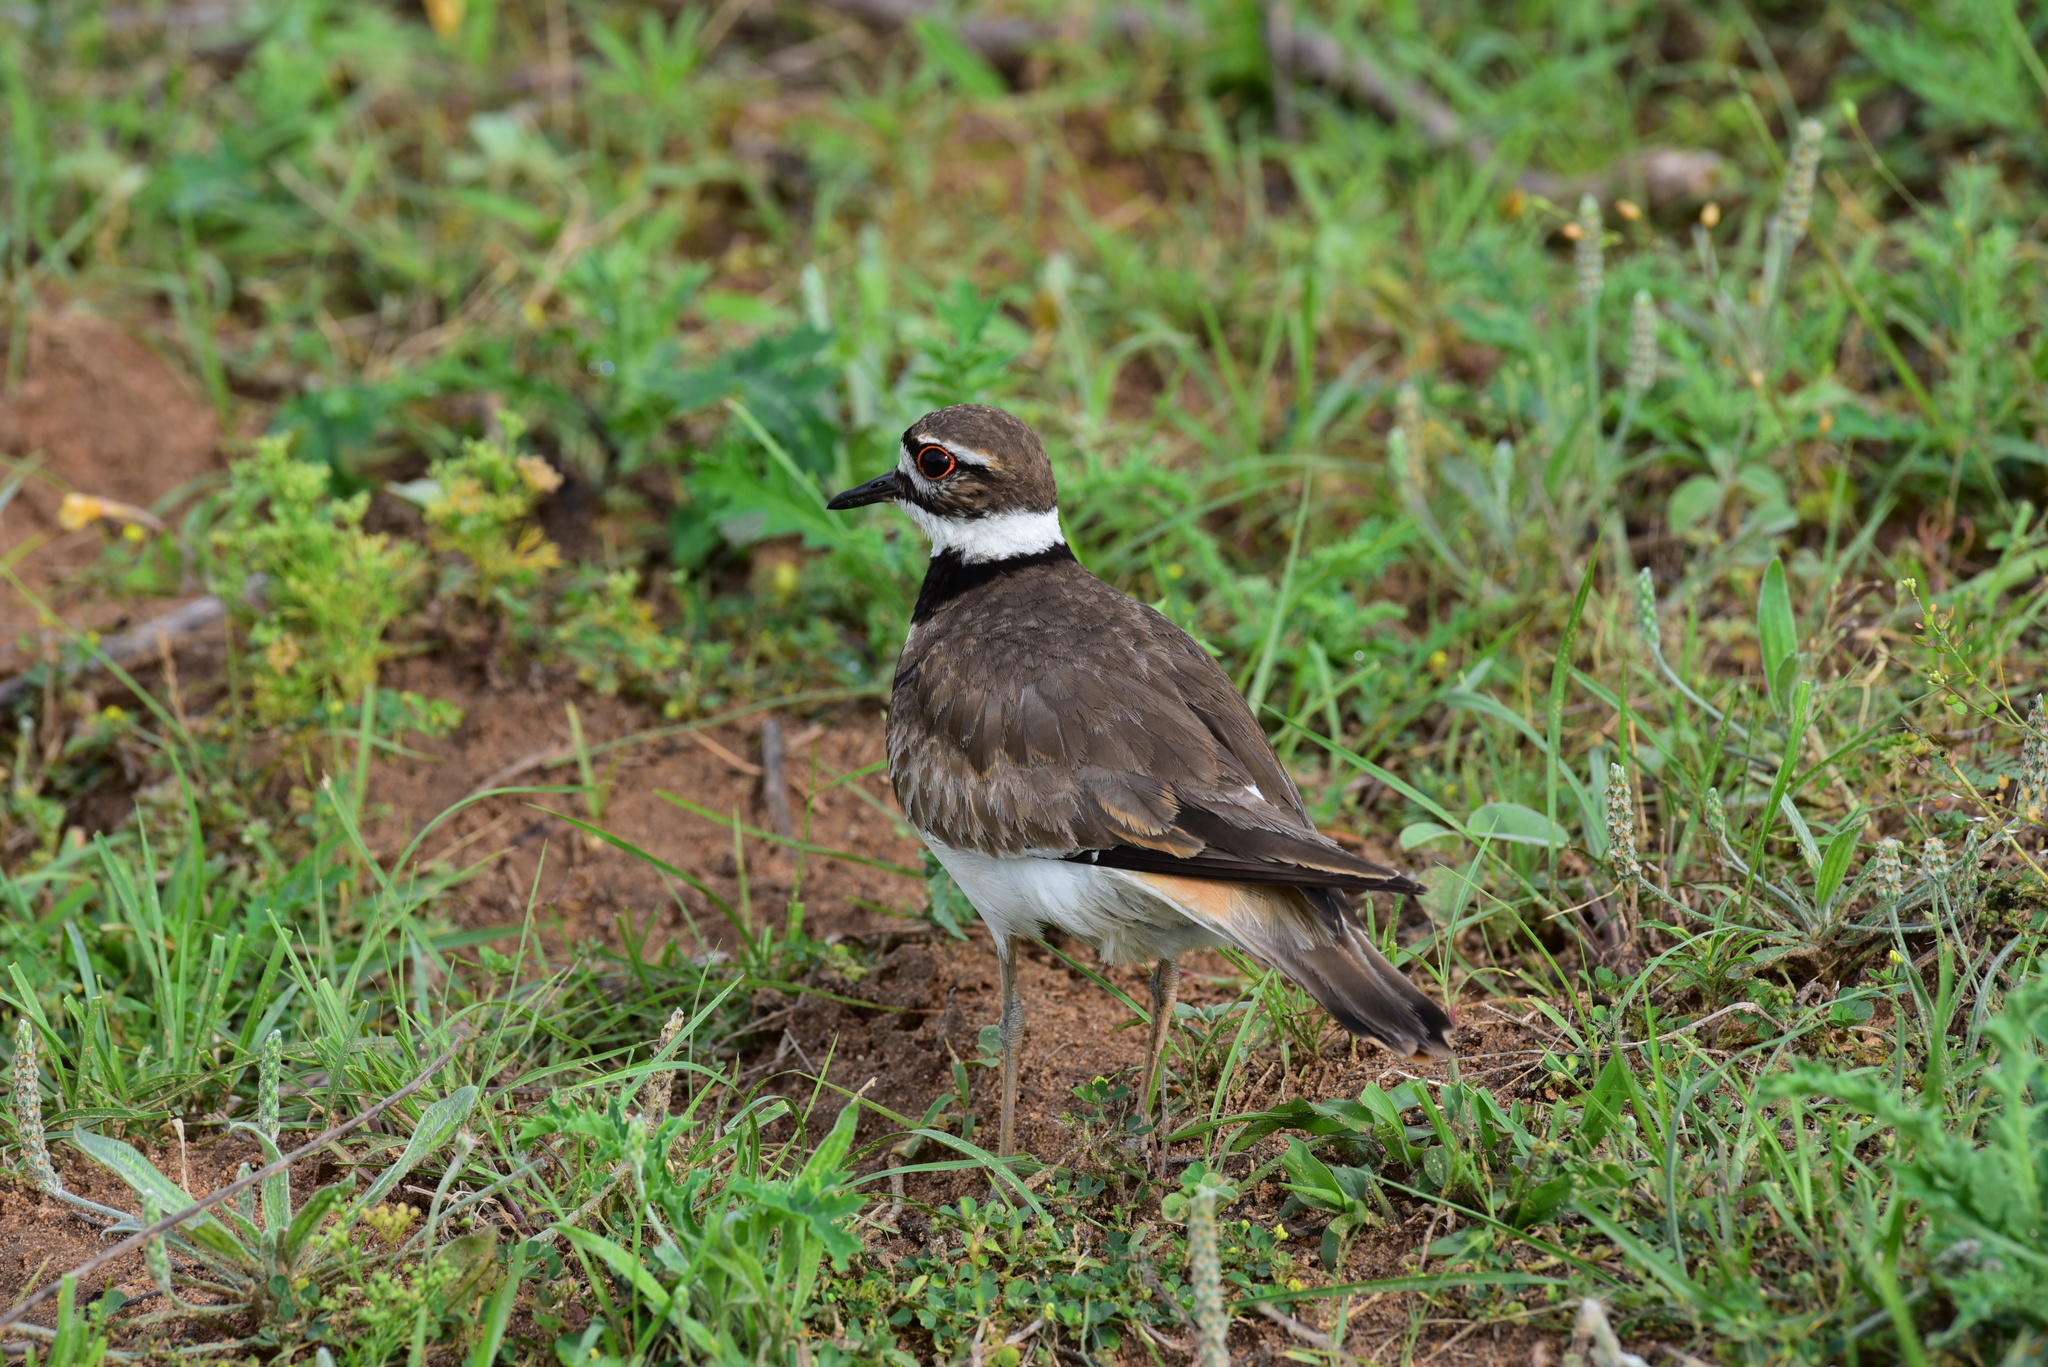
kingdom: Animalia
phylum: Chordata
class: Aves
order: Charadriiformes
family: Charadriidae
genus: Charadrius
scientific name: Charadrius vociferus
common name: Killdeer
